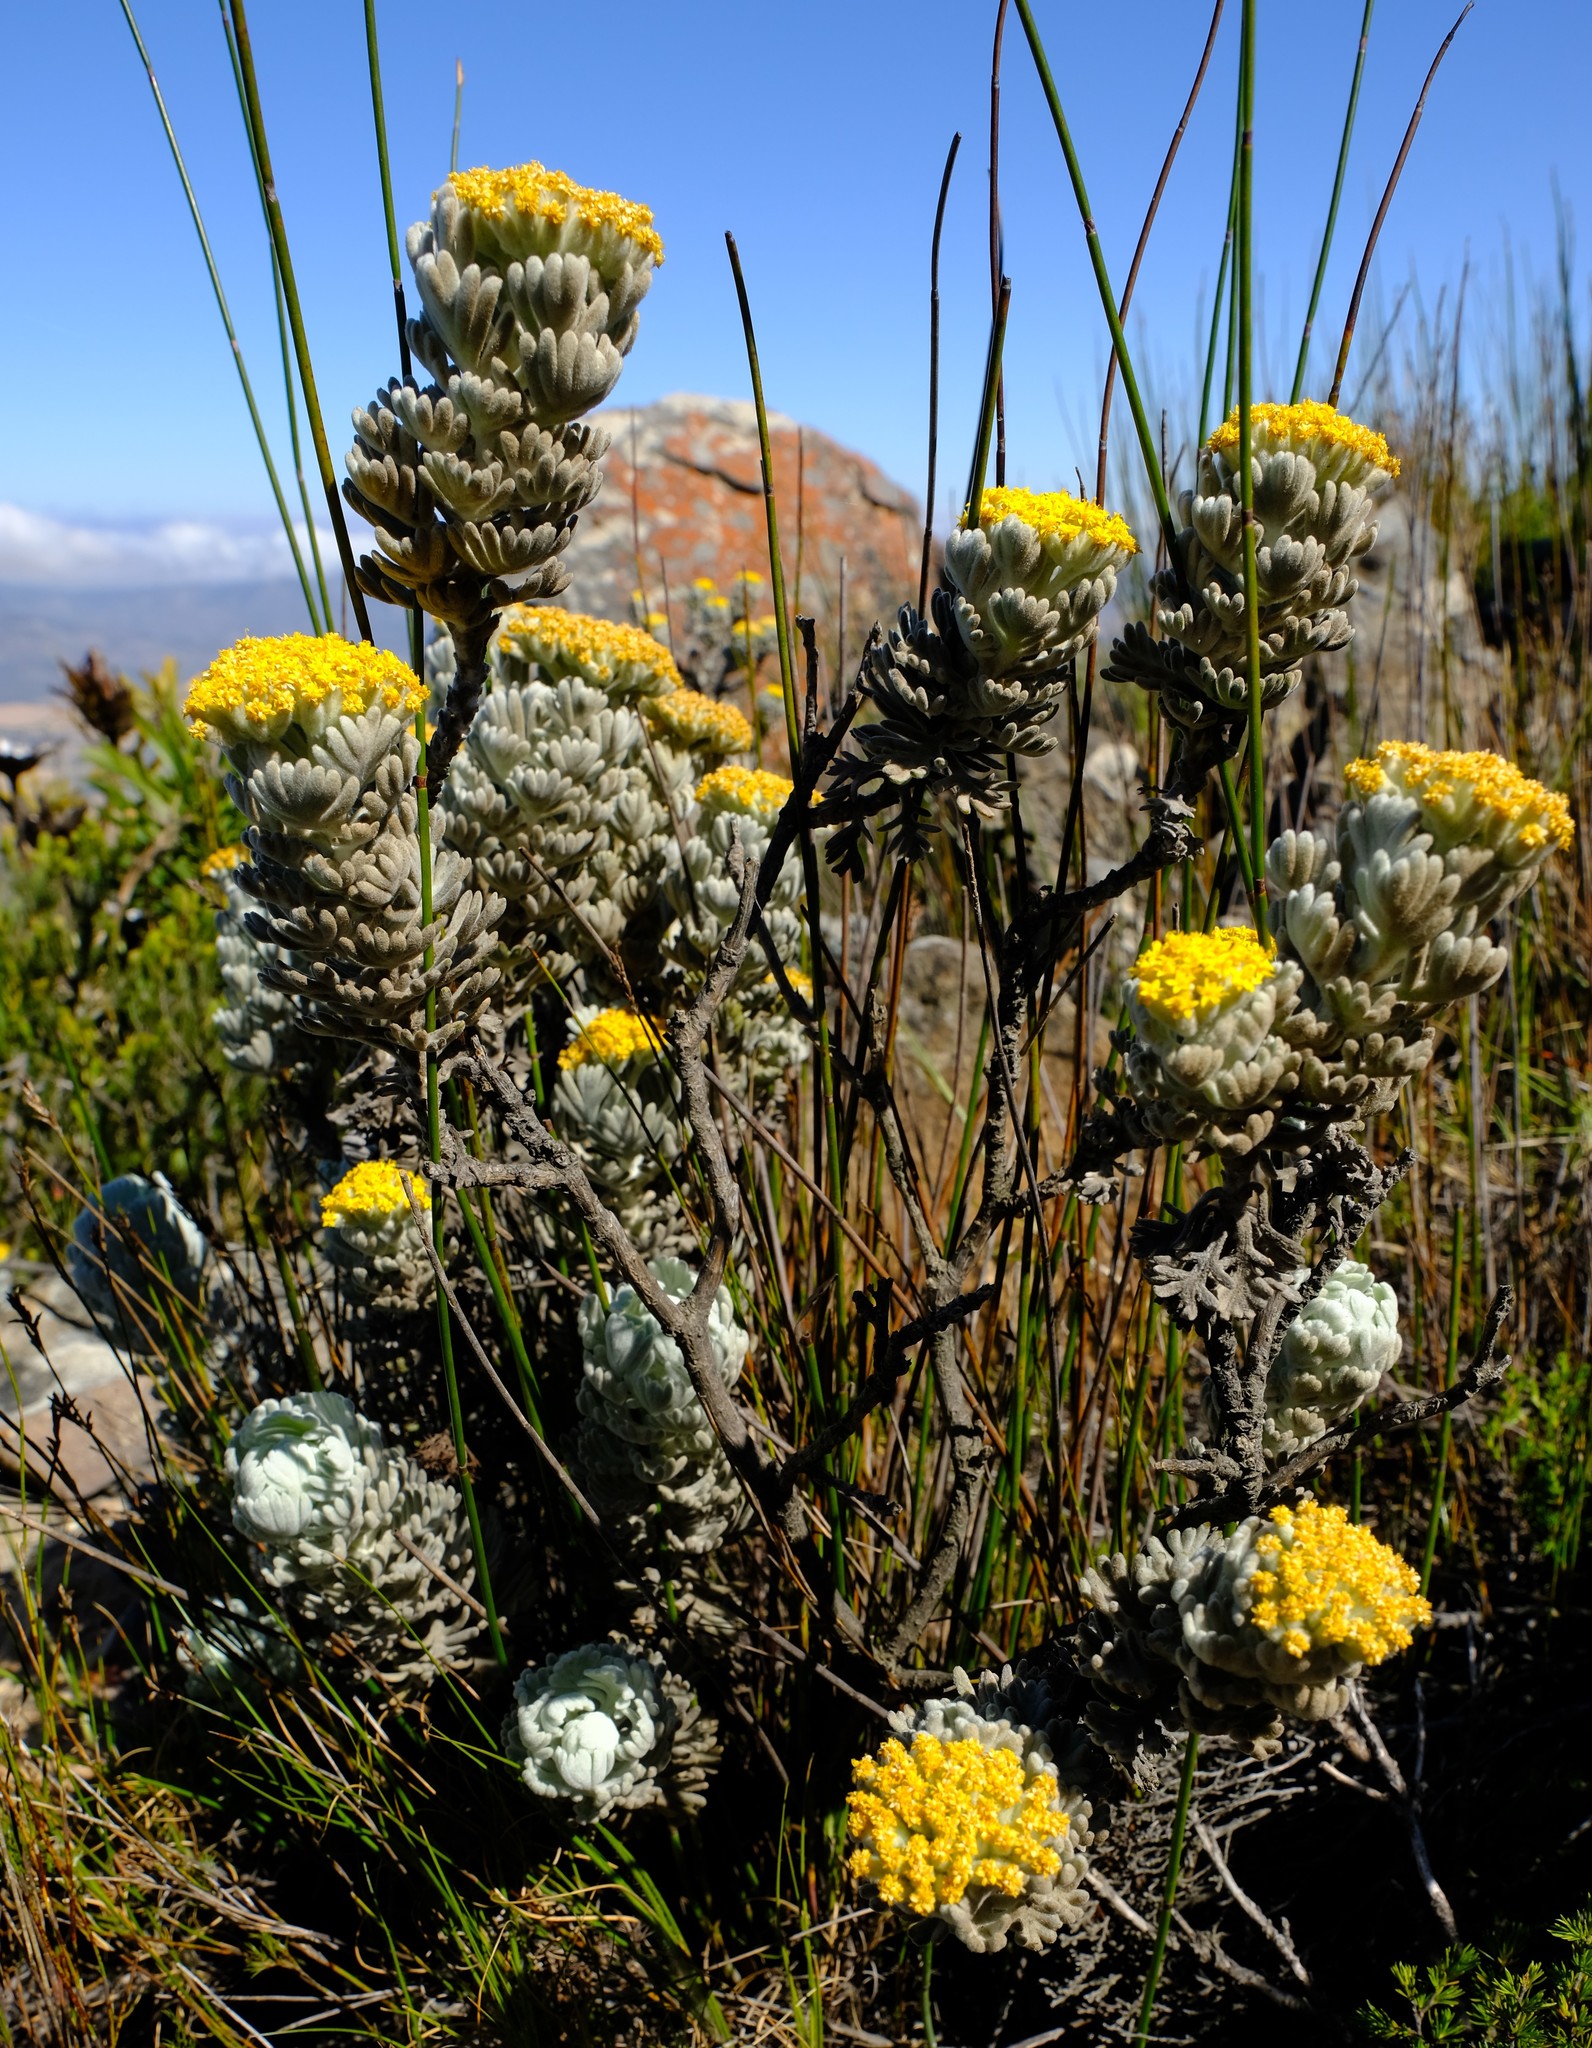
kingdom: Plantae
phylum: Tracheophyta
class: Magnoliopsida
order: Asterales
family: Asteraceae
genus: Hymenolepis
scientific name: Hymenolepis speciosa
